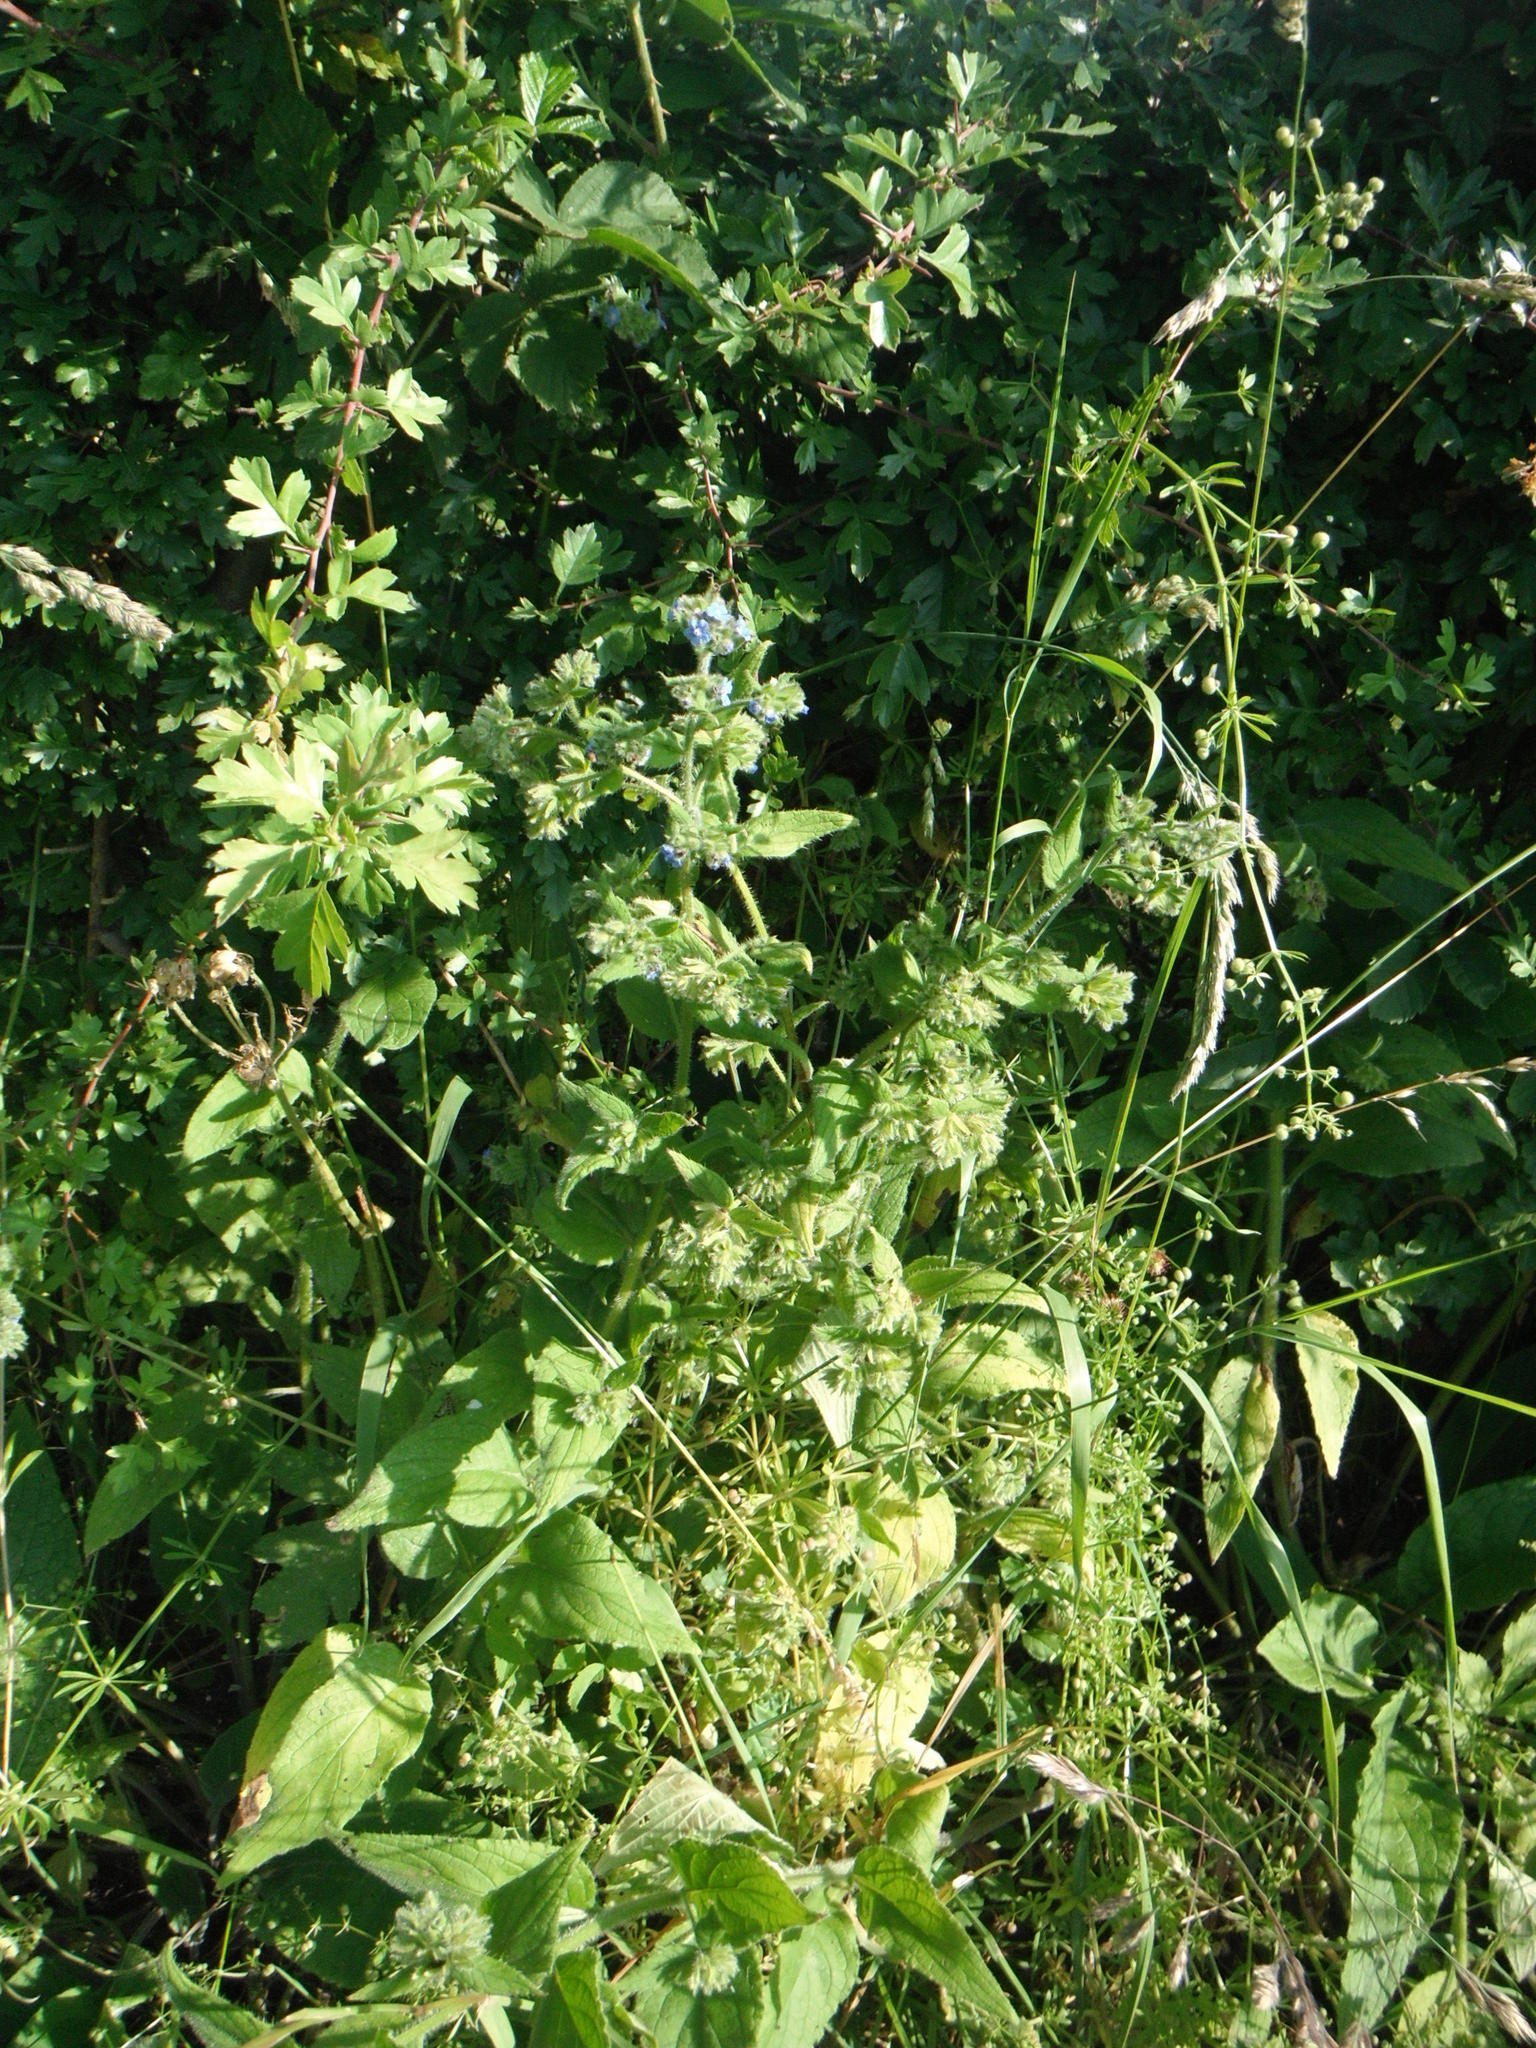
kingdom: Plantae
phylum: Tracheophyta
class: Magnoliopsida
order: Boraginales
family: Boraginaceae
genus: Pentaglottis
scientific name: Pentaglottis sempervirens
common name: Green alkanet
